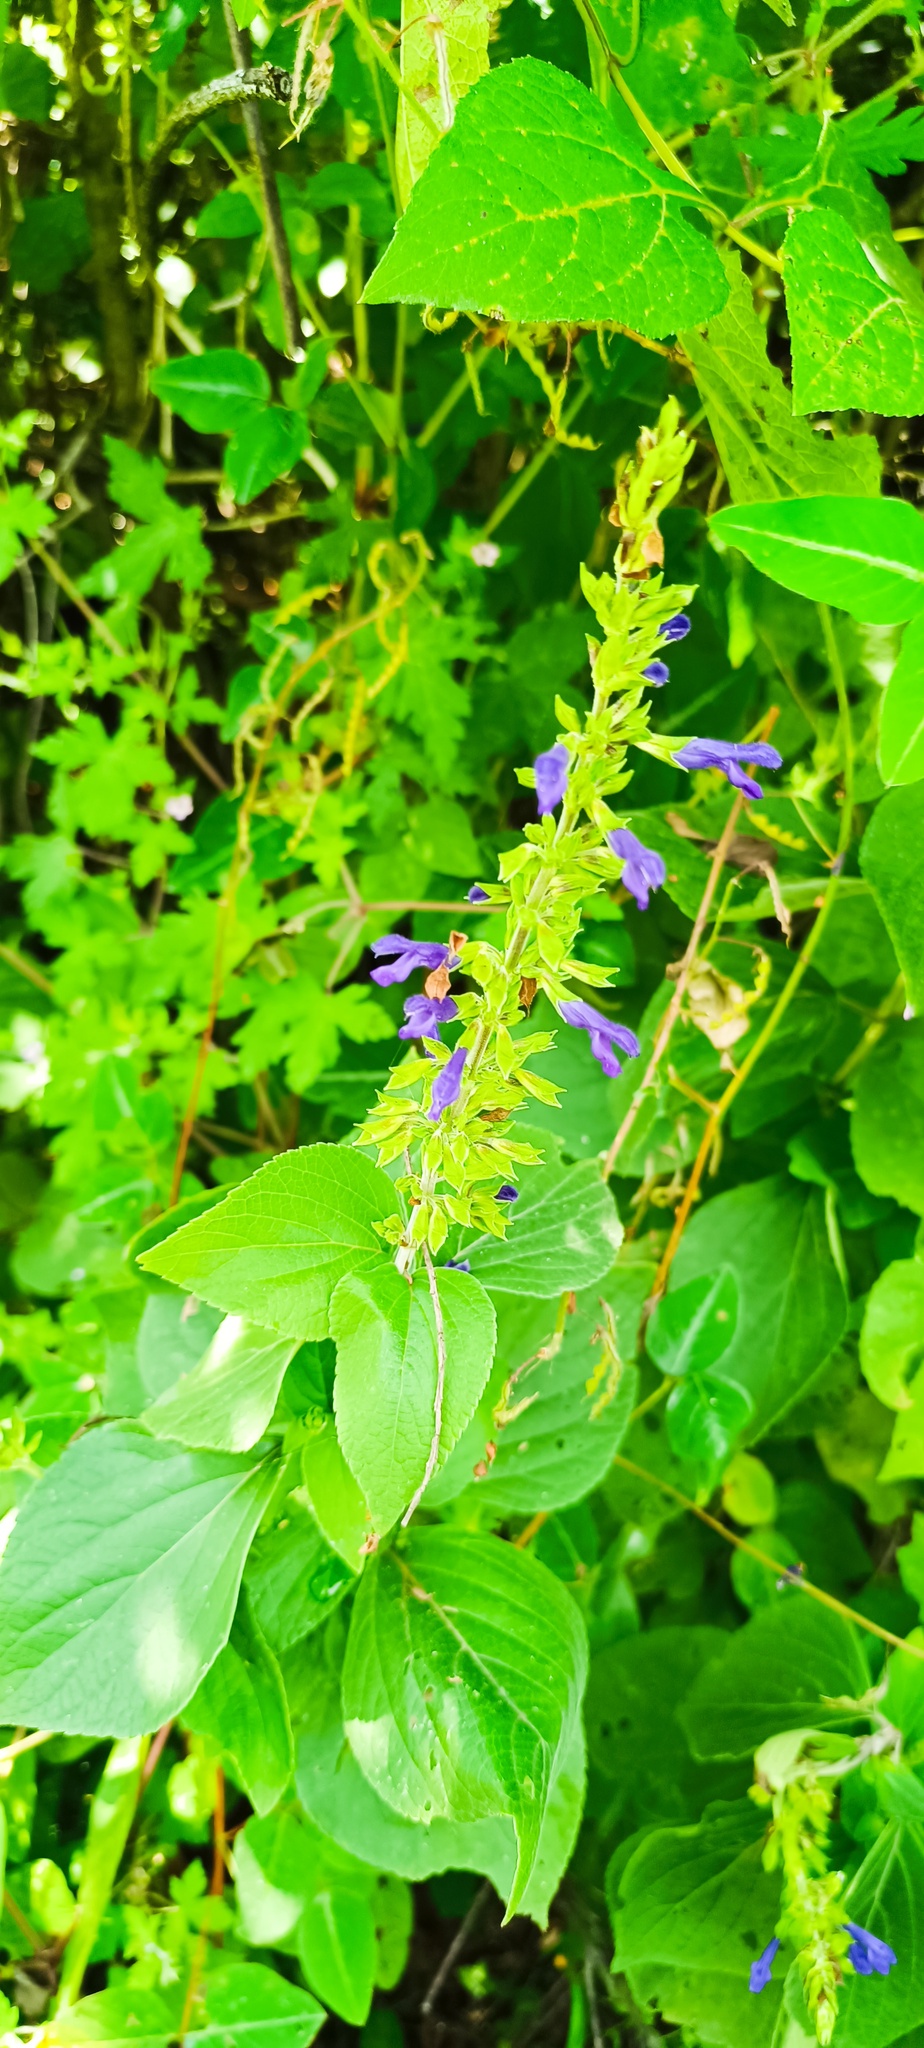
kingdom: Plantae
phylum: Tracheophyta
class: Magnoliopsida
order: Lamiales
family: Lamiaceae
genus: Salvia
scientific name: Salvia mexicana
